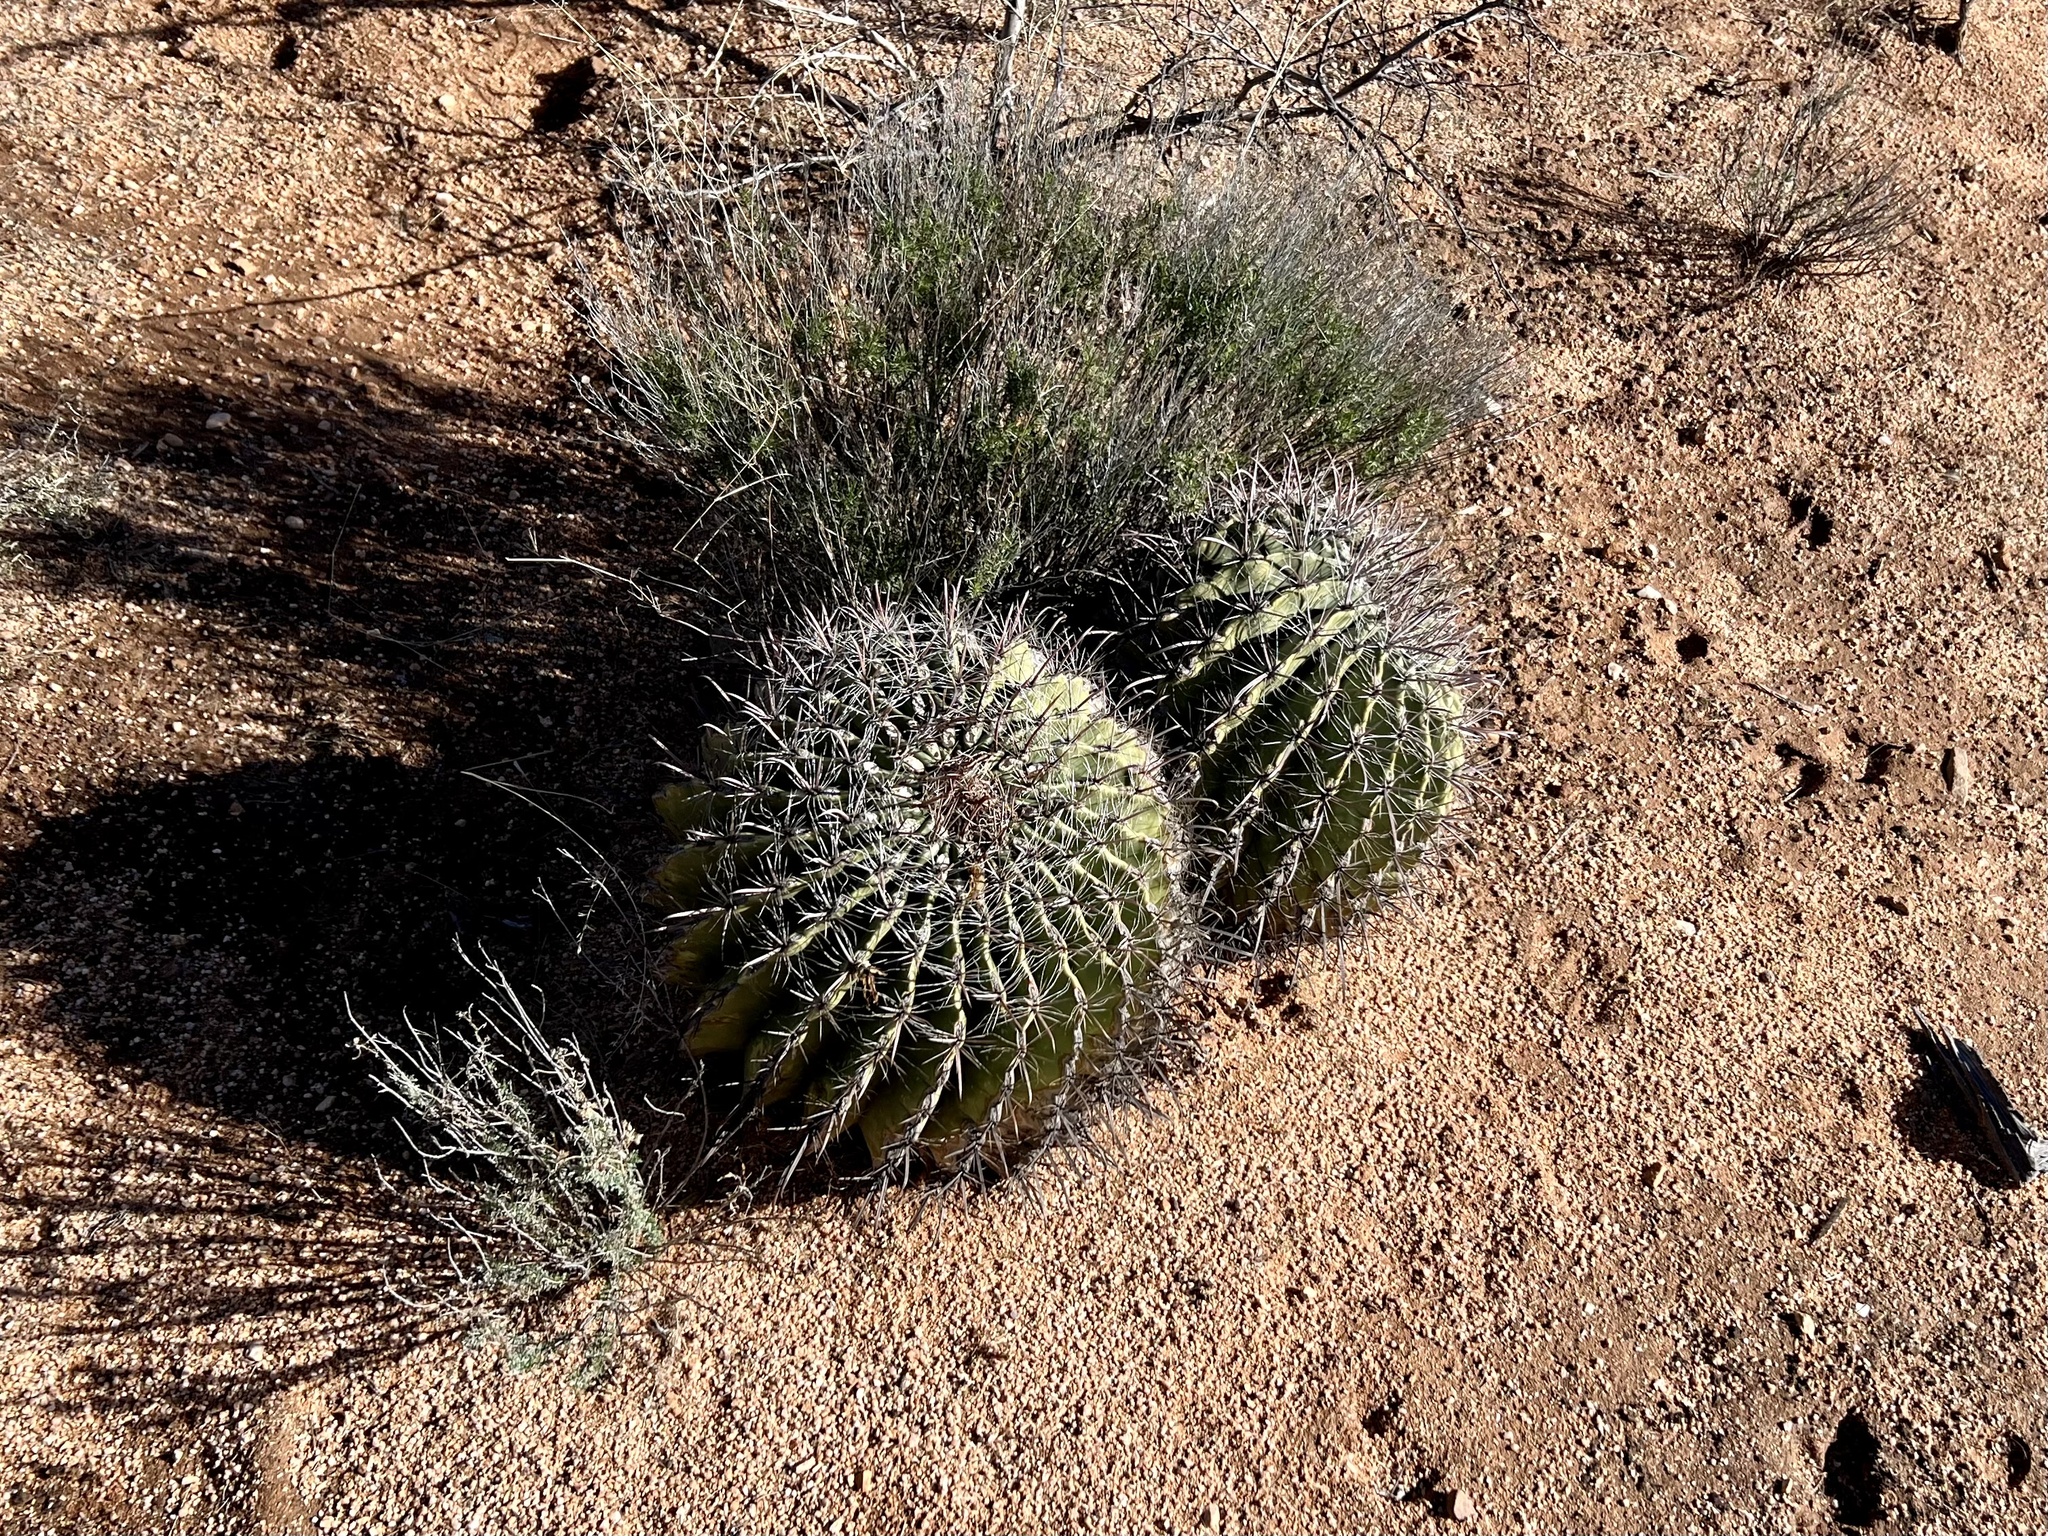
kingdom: Plantae
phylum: Tracheophyta
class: Magnoliopsida
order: Caryophyllales
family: Cactaceae
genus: Ferocactus
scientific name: Ferocactus wislizeni
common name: Candy barrel cactus
